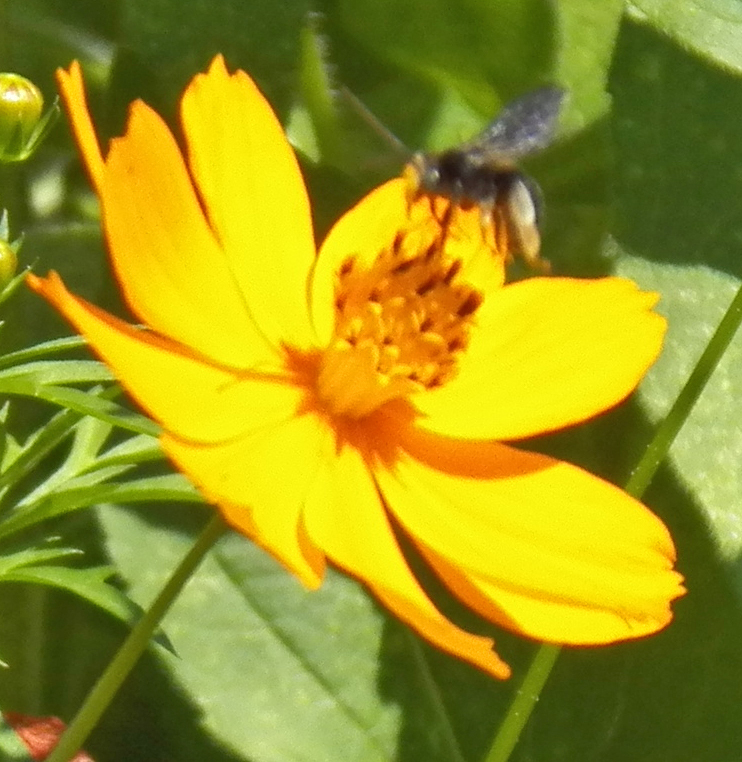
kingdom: Animalia
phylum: Arthropoda
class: Insecta
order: Hymenoptera
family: Apidae
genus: Melissodes
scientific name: Melissodes bimaculatus
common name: Two-spotted long-horned bee
